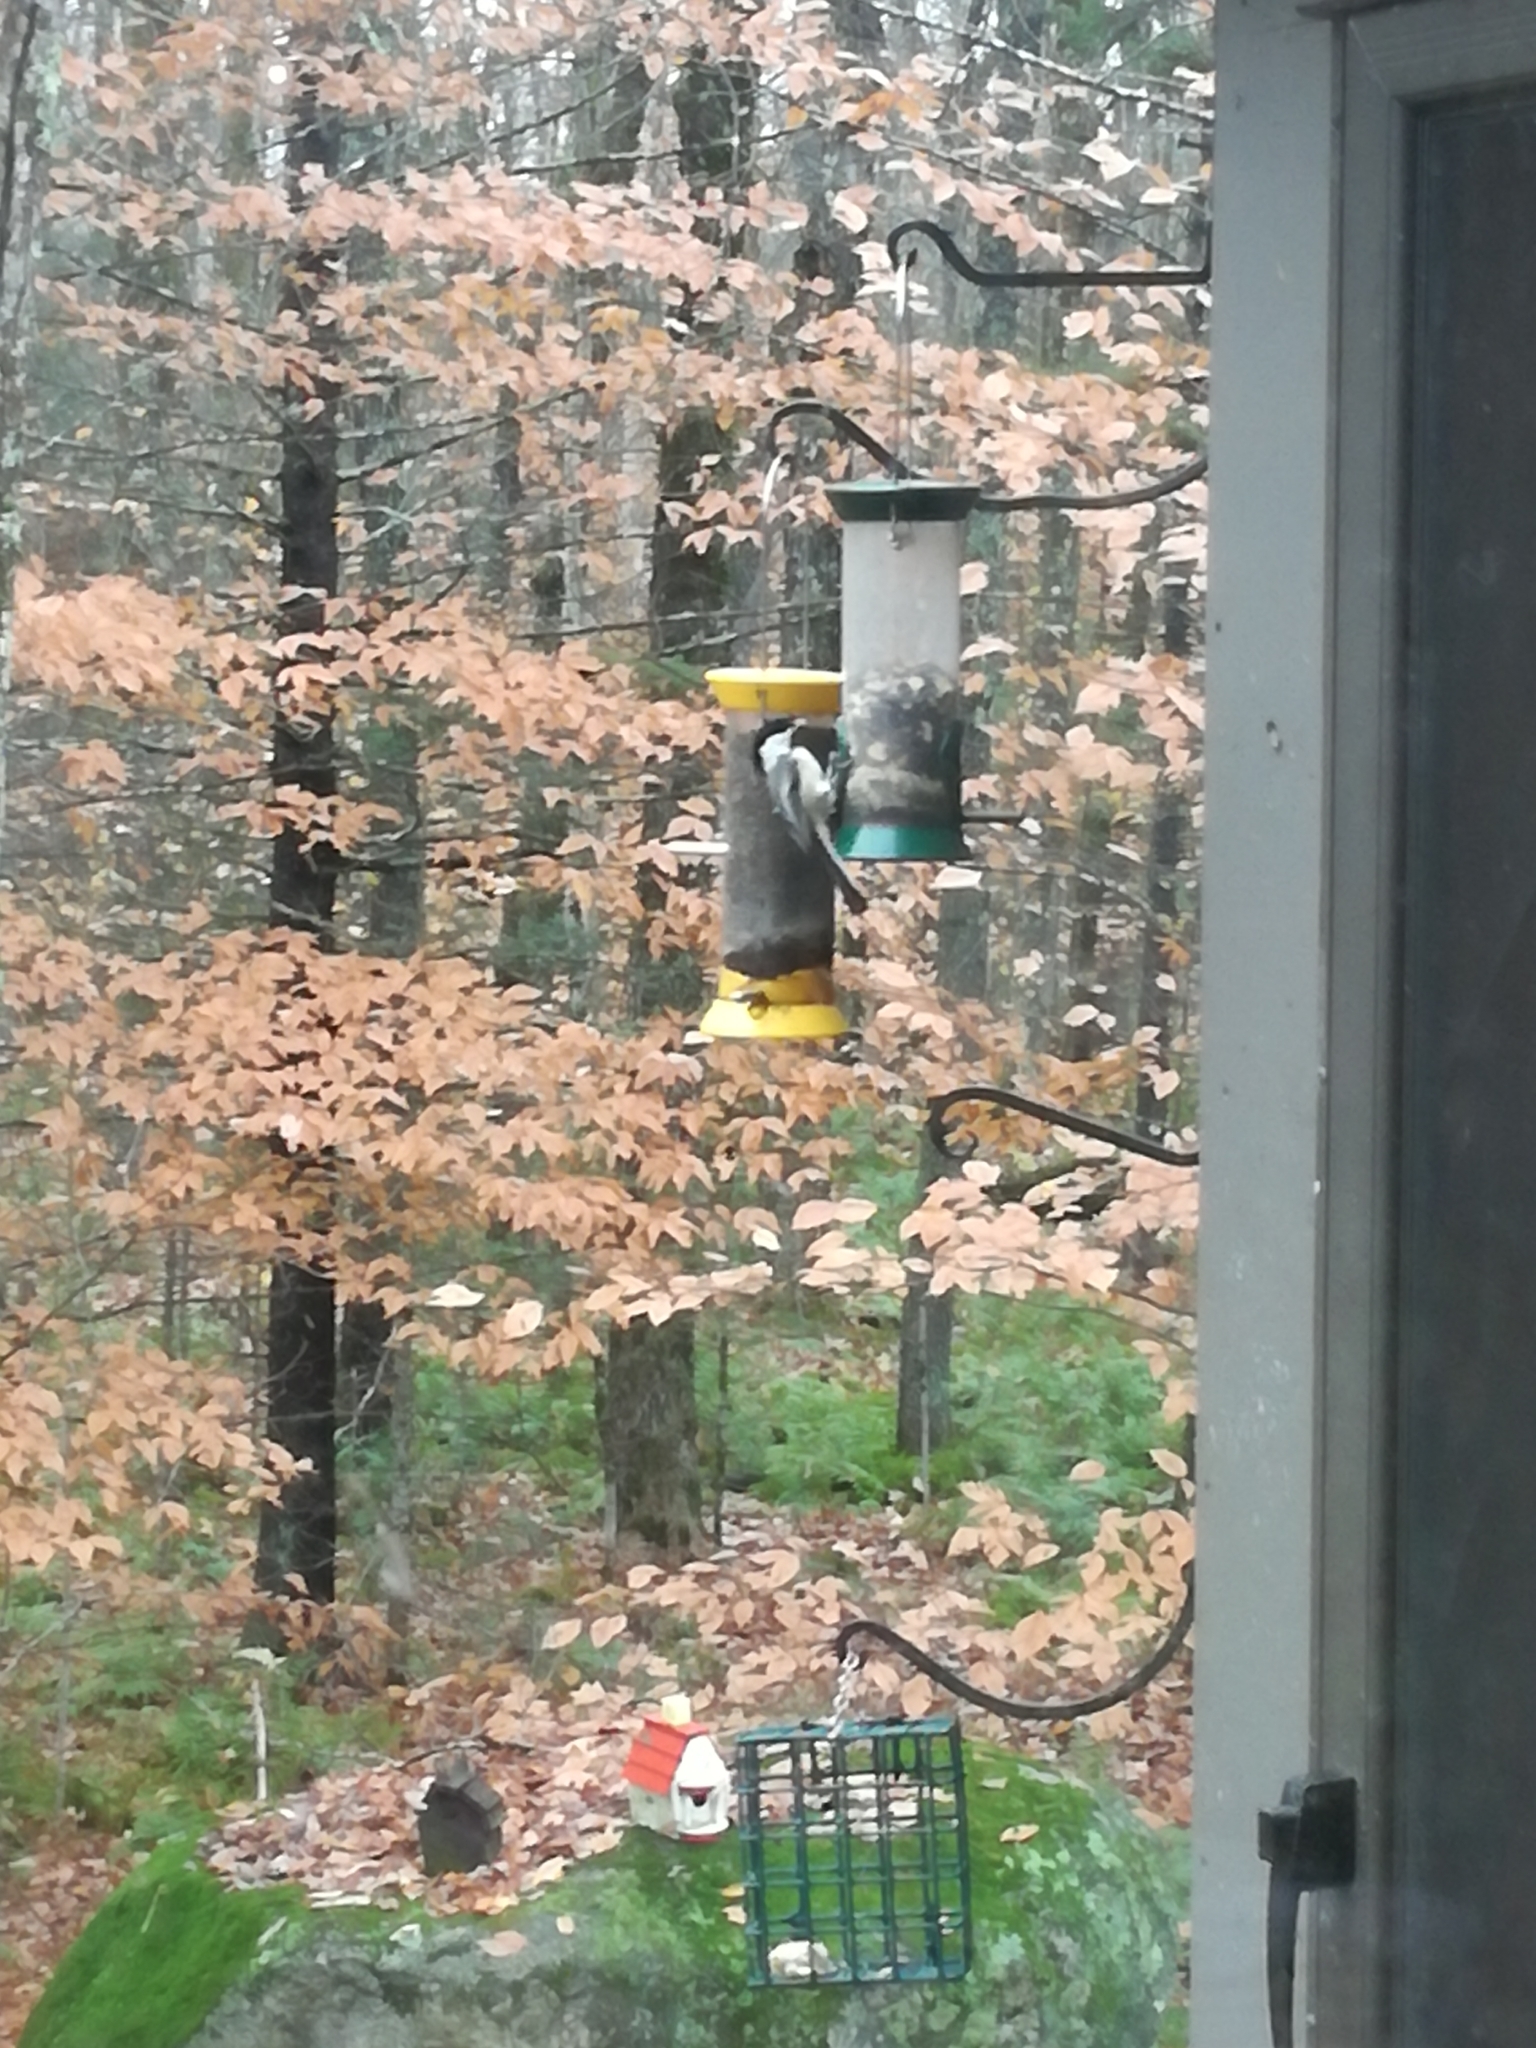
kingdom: Animalia
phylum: Chordata
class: Aves
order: Passeriformes
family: Paridae
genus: Poecile
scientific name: Poecile atricapillus
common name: Black-capped chickadee
